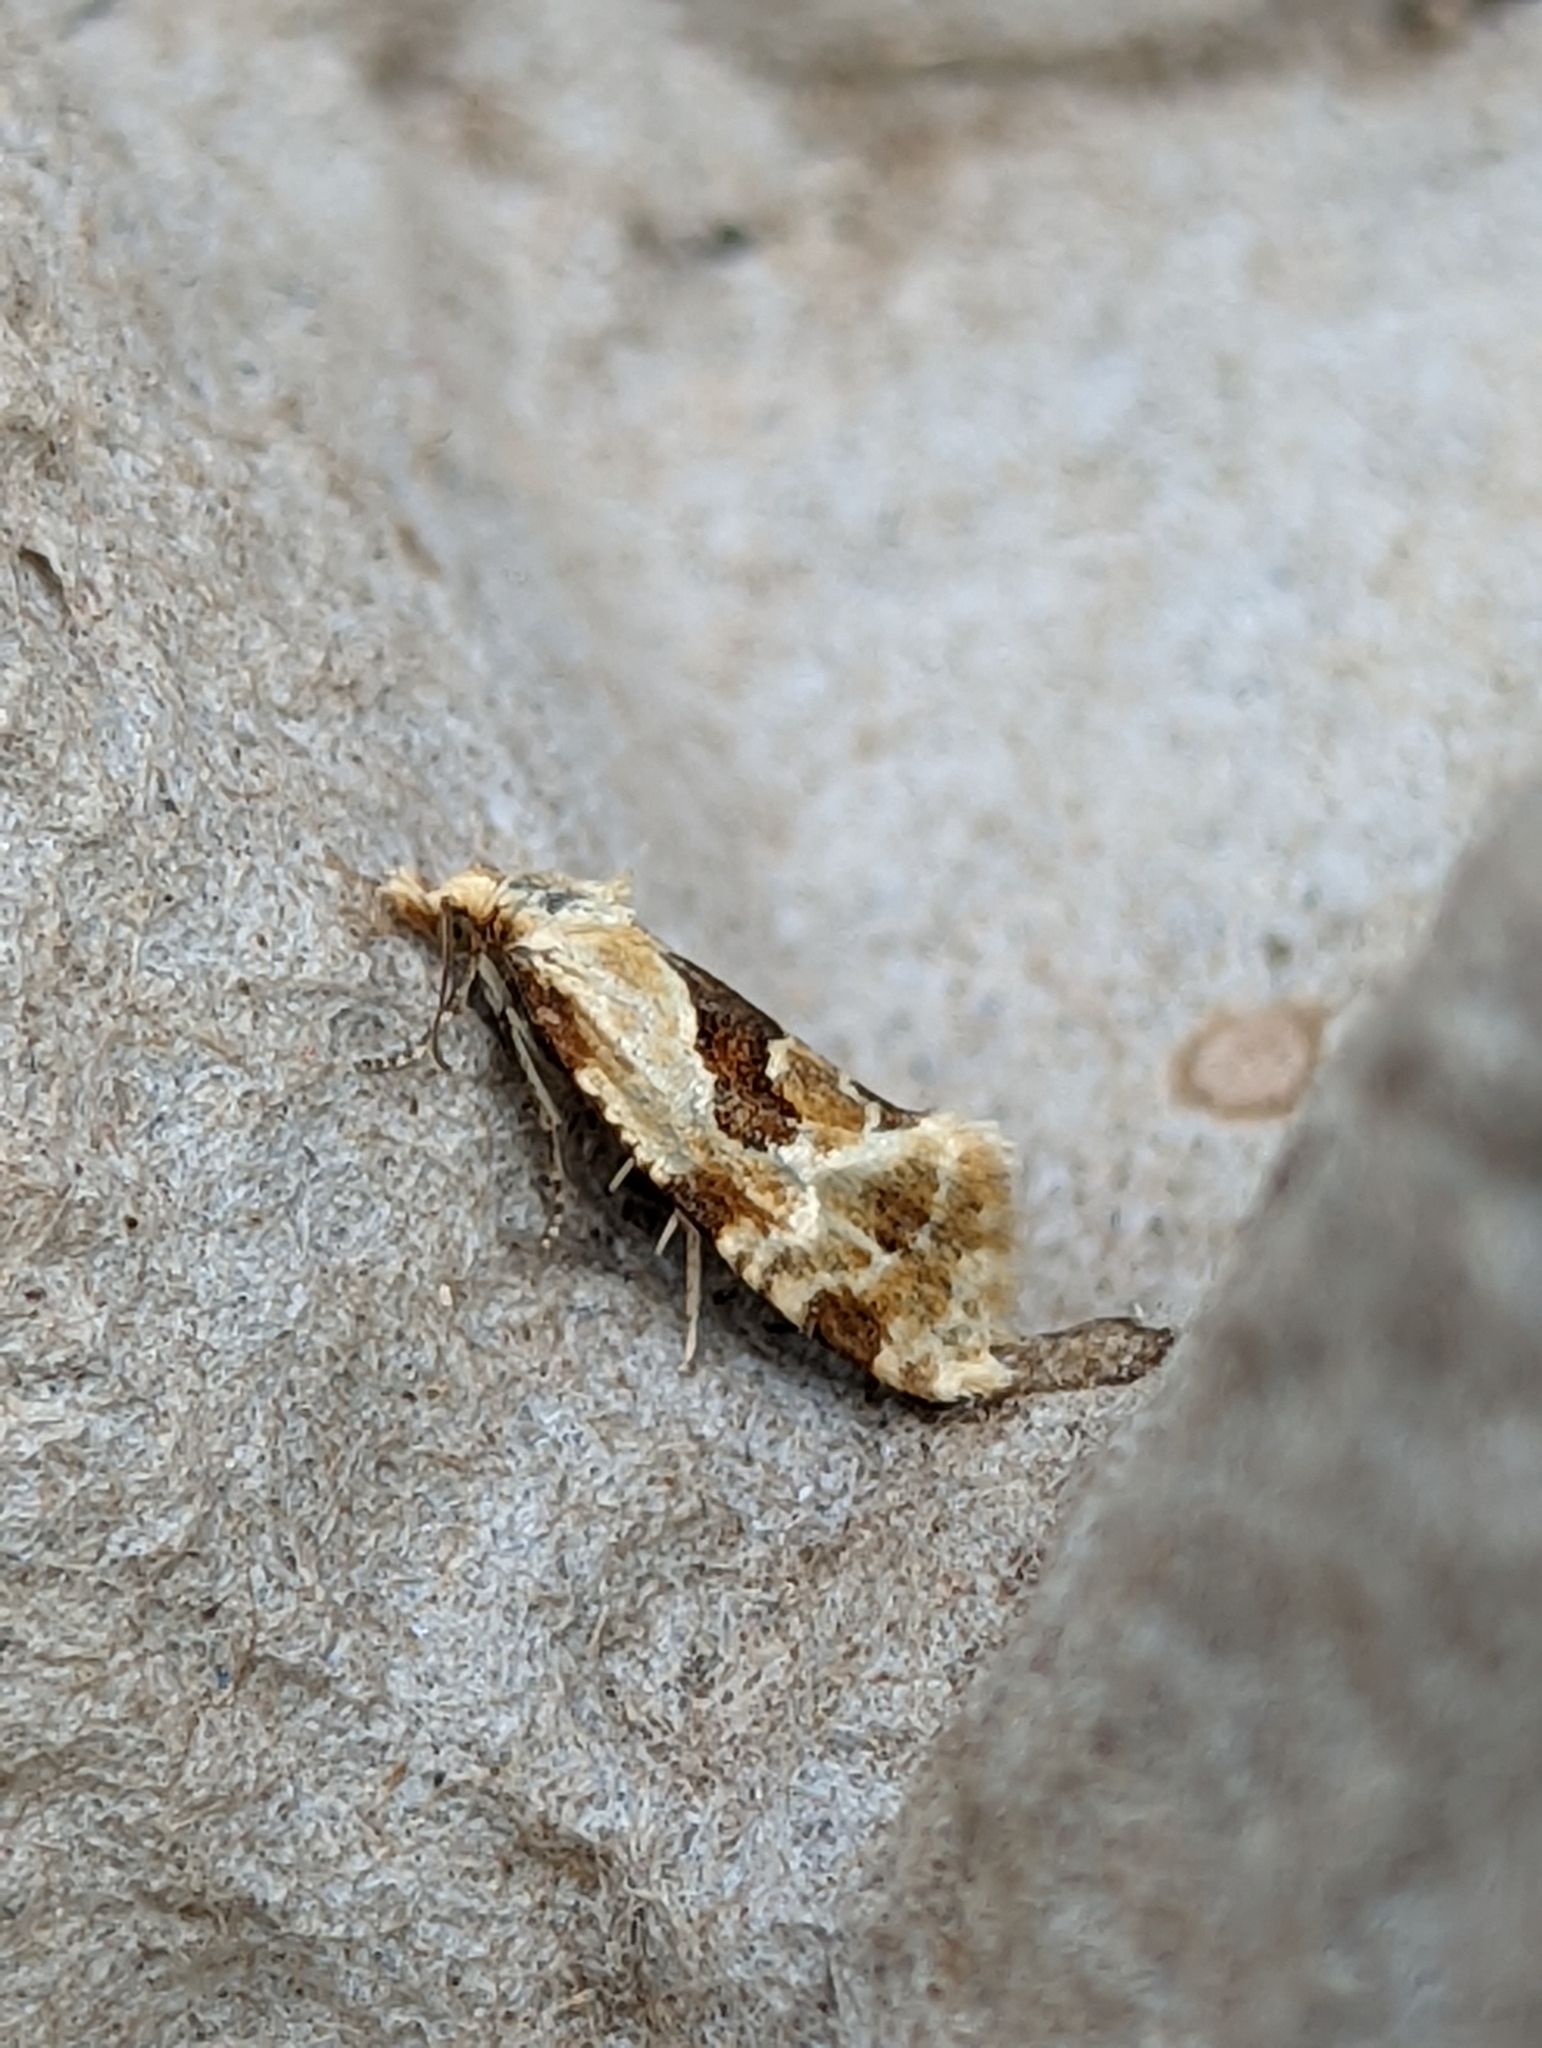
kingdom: Animalia
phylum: Arthropoda
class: Insecta
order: Lepidoptera
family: Tortricidae
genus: Aethes
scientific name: Aethes rubigana
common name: Burdock conch
